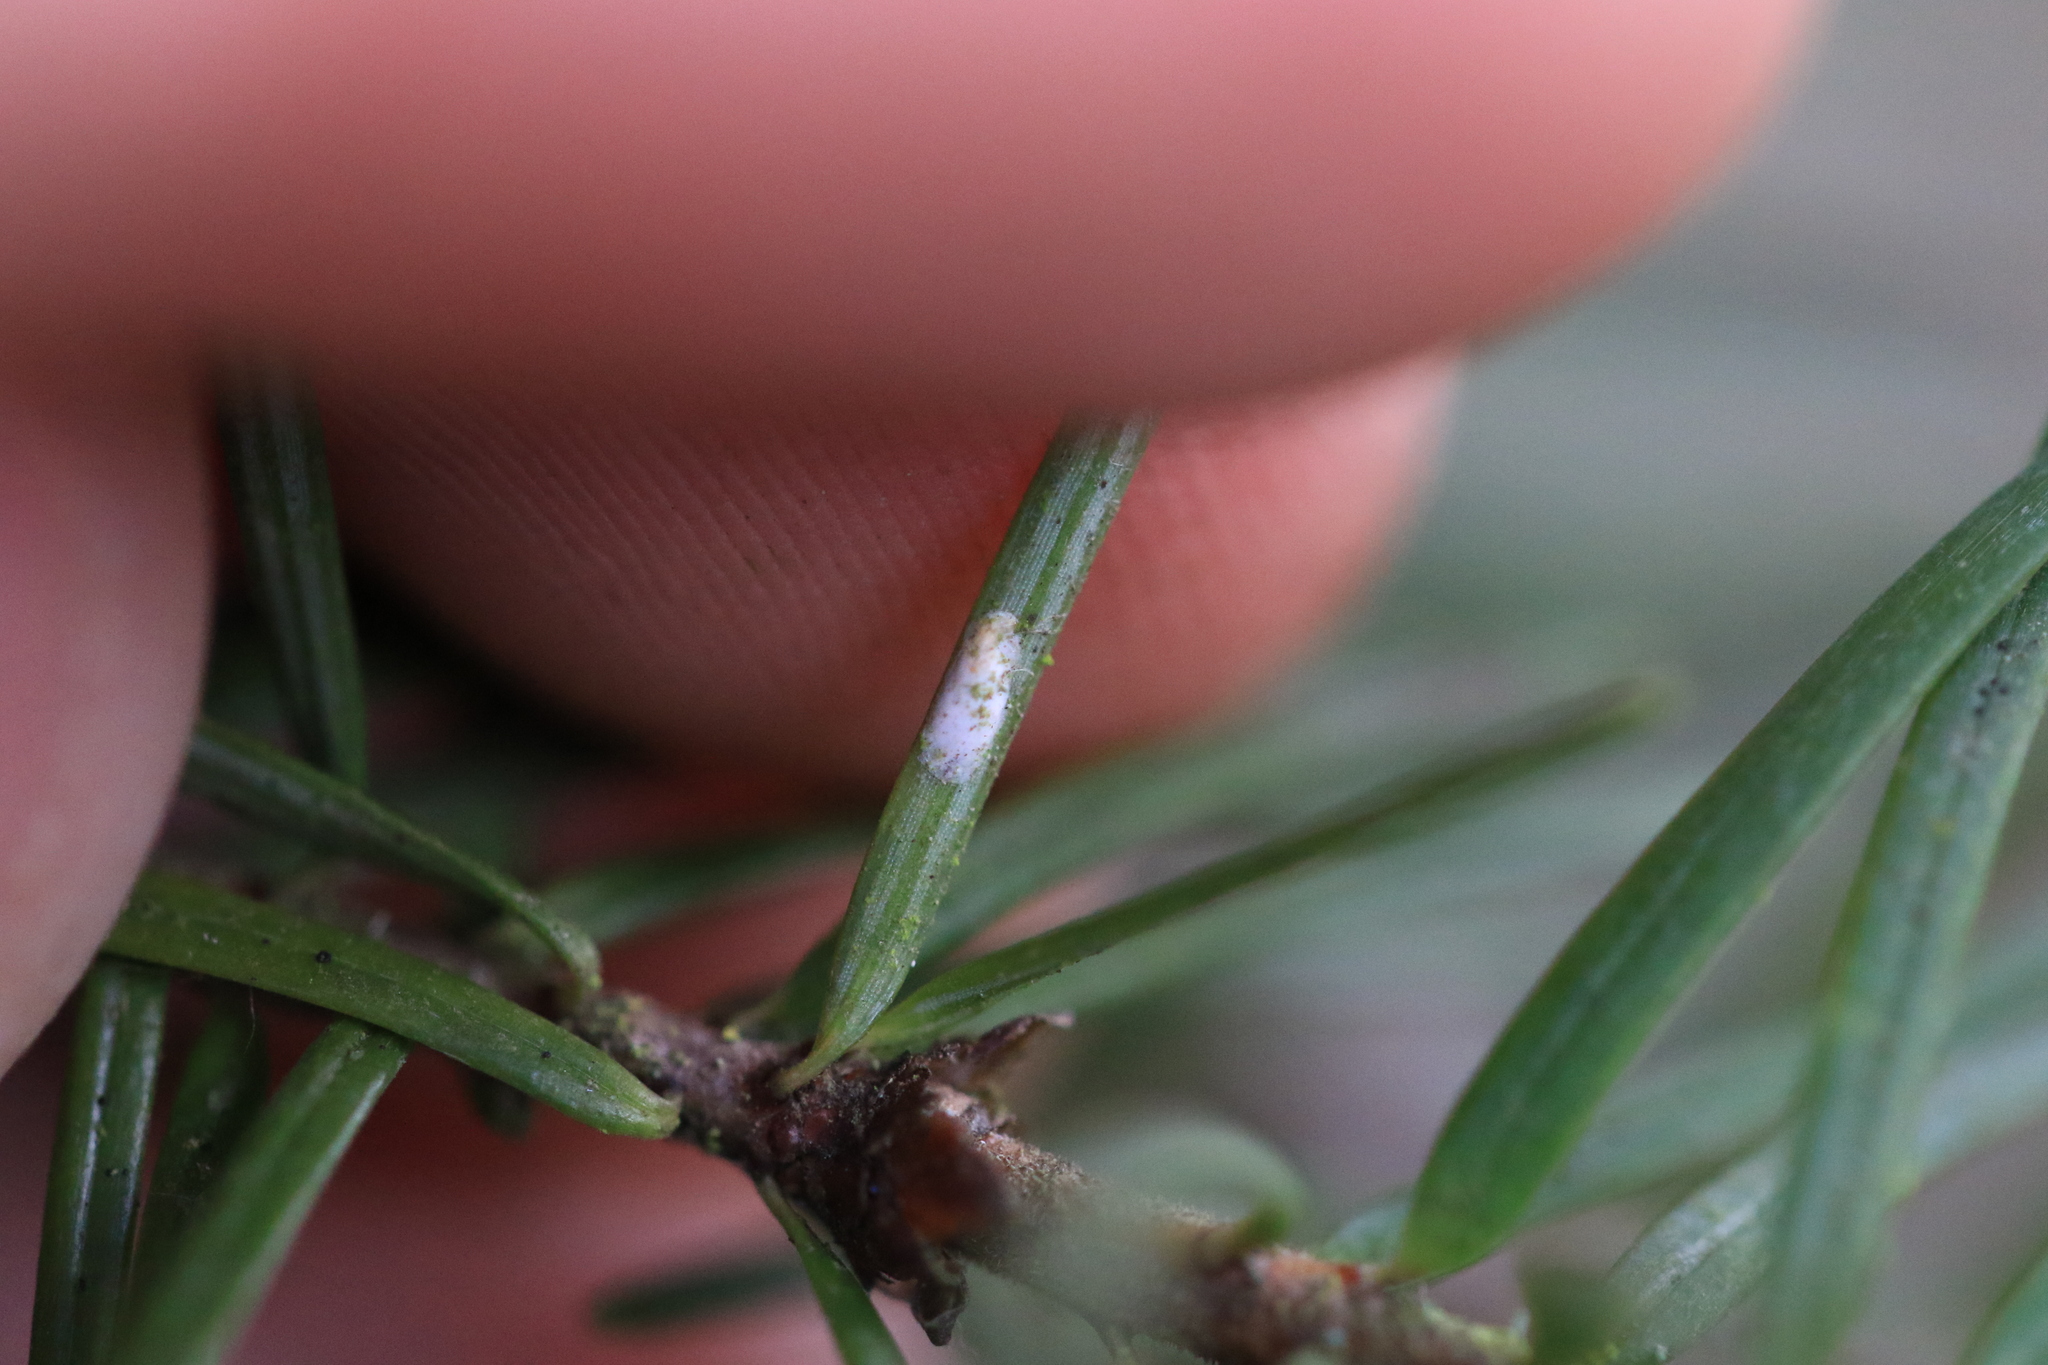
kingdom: Animalia
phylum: Arthropoda
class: Insecta
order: Hemiptera
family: Diaspididae
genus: Chionaspis
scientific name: Chionaspis pinifoliae
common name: Pine leaf scale
